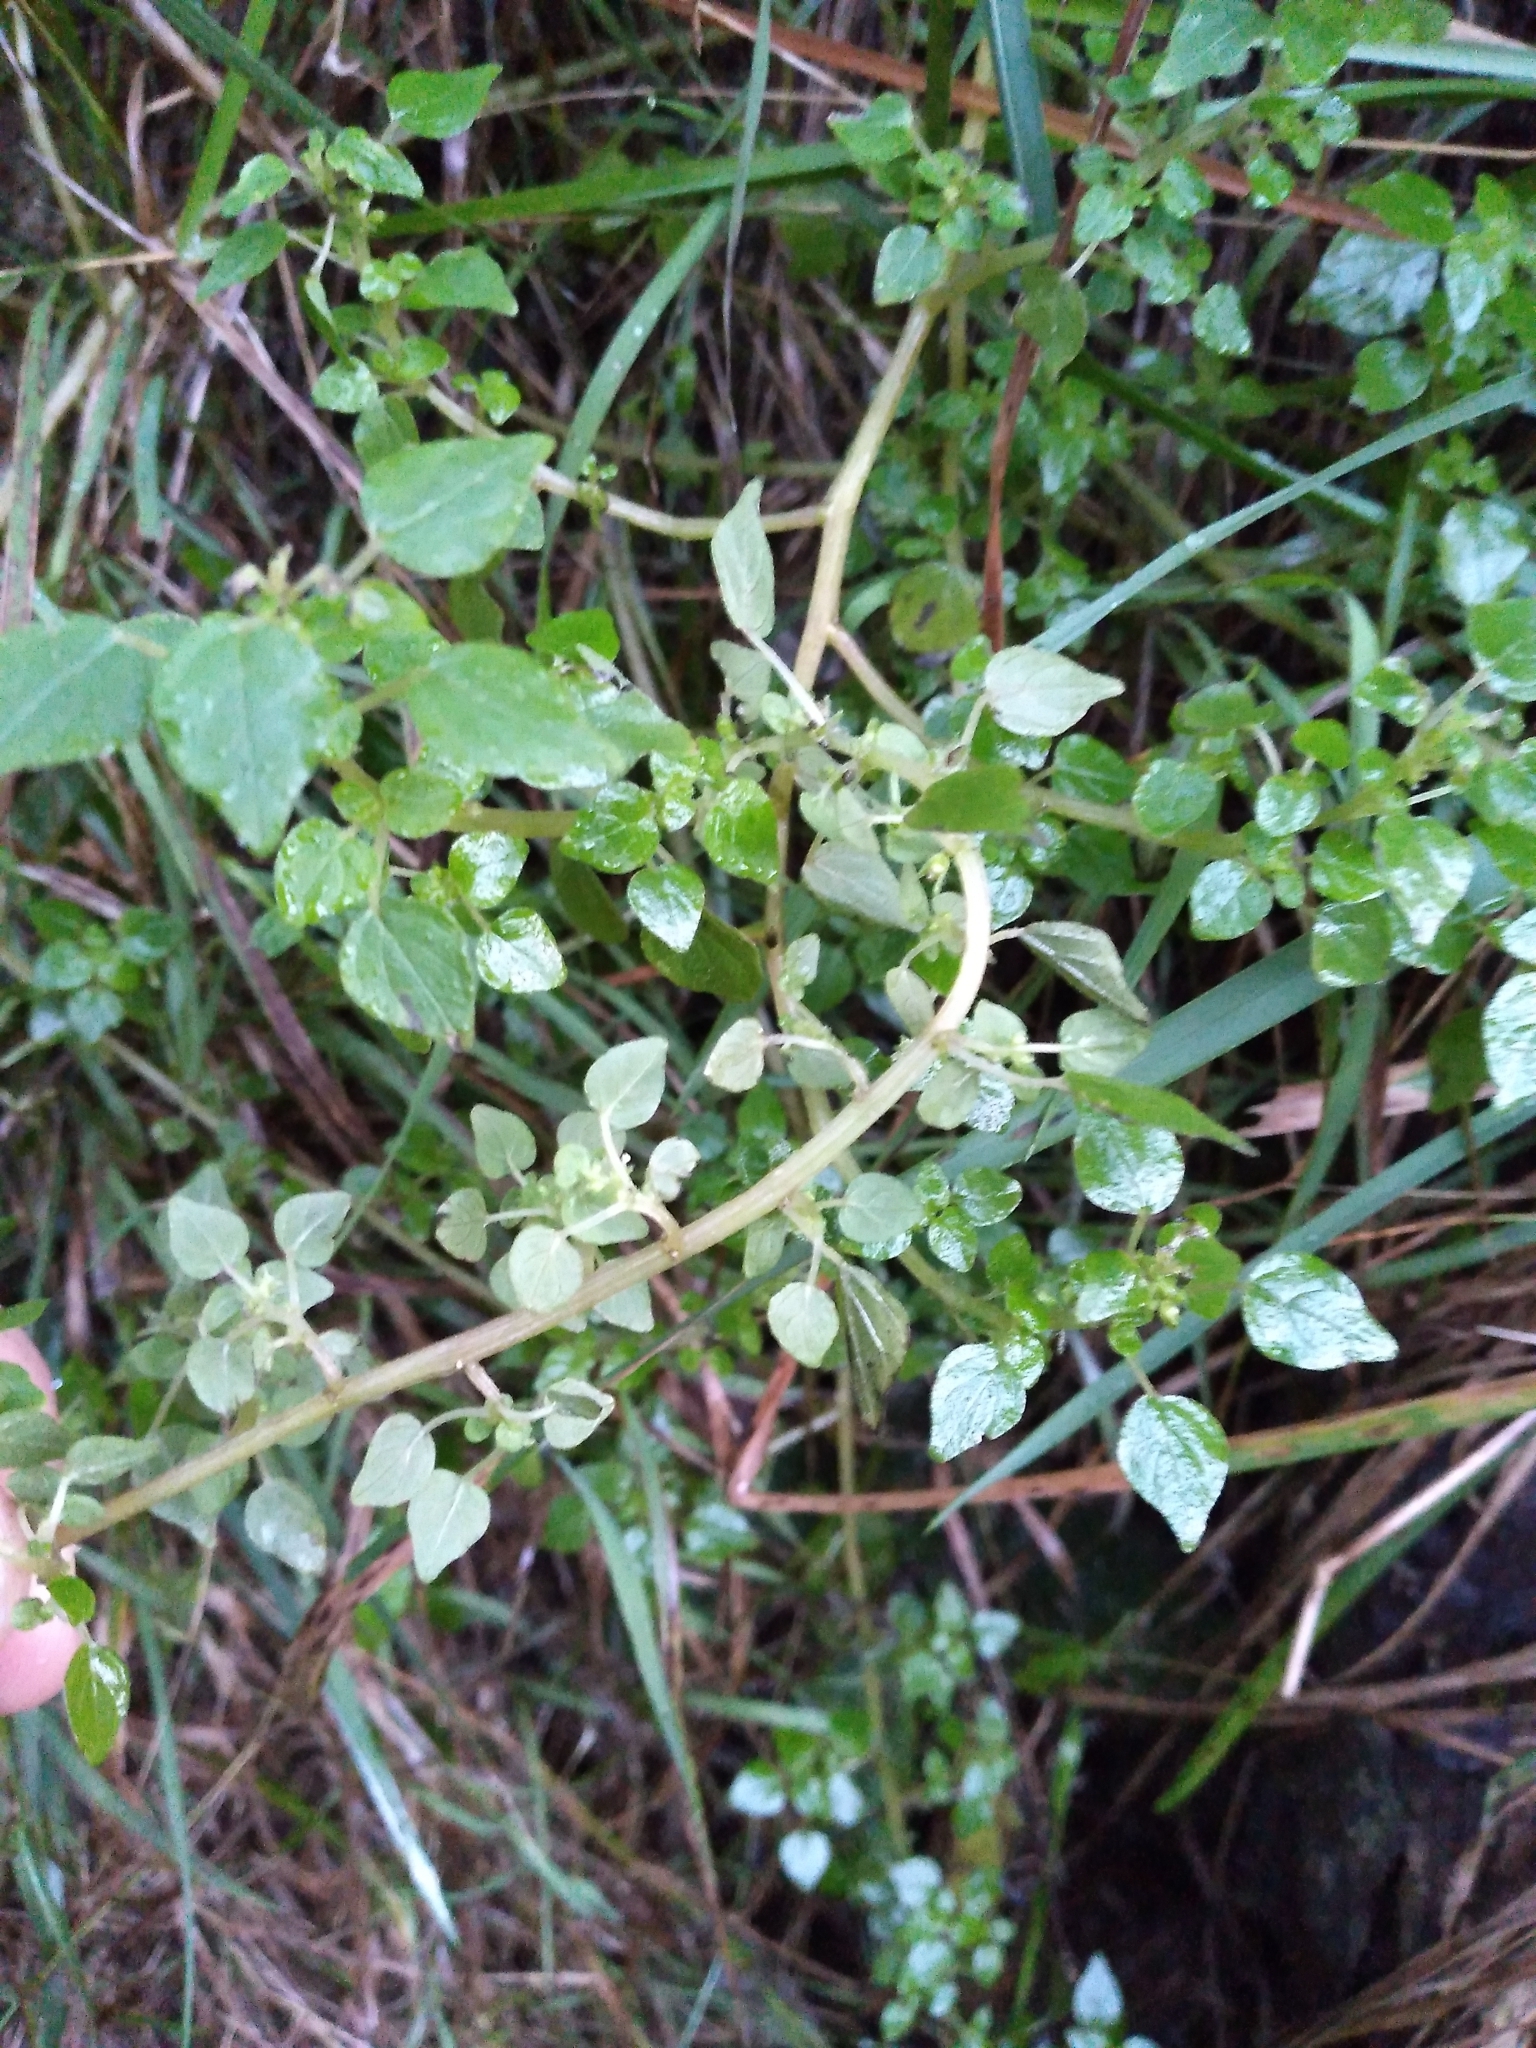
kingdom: Plantae
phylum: Tracheophyta
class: Magnoliopsida
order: Rosales
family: Urticaceae
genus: Parietaria
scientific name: Parietaria debilis
